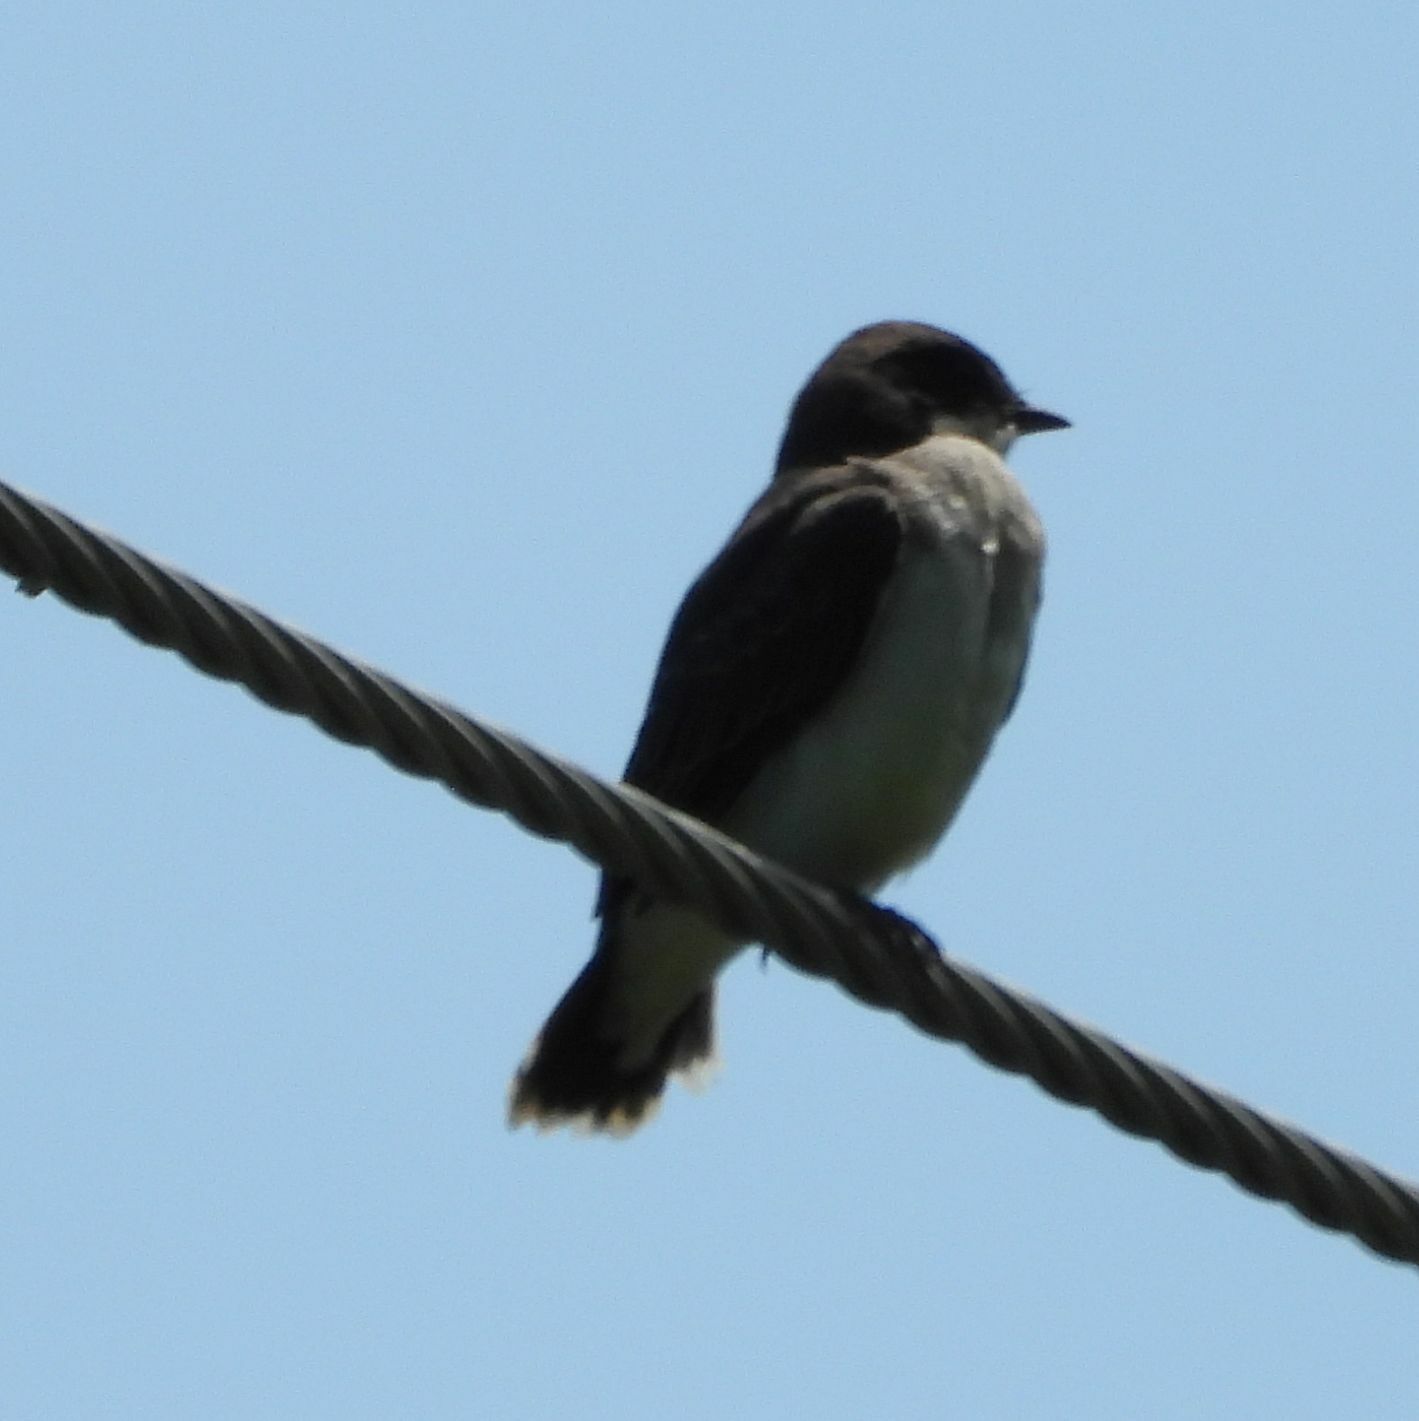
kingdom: Animalia
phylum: Chordata
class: Aves
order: Passeriformes
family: Tyrannidae
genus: Tyrannus
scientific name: Tyrannus tyrannus
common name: Eastern kingbird
